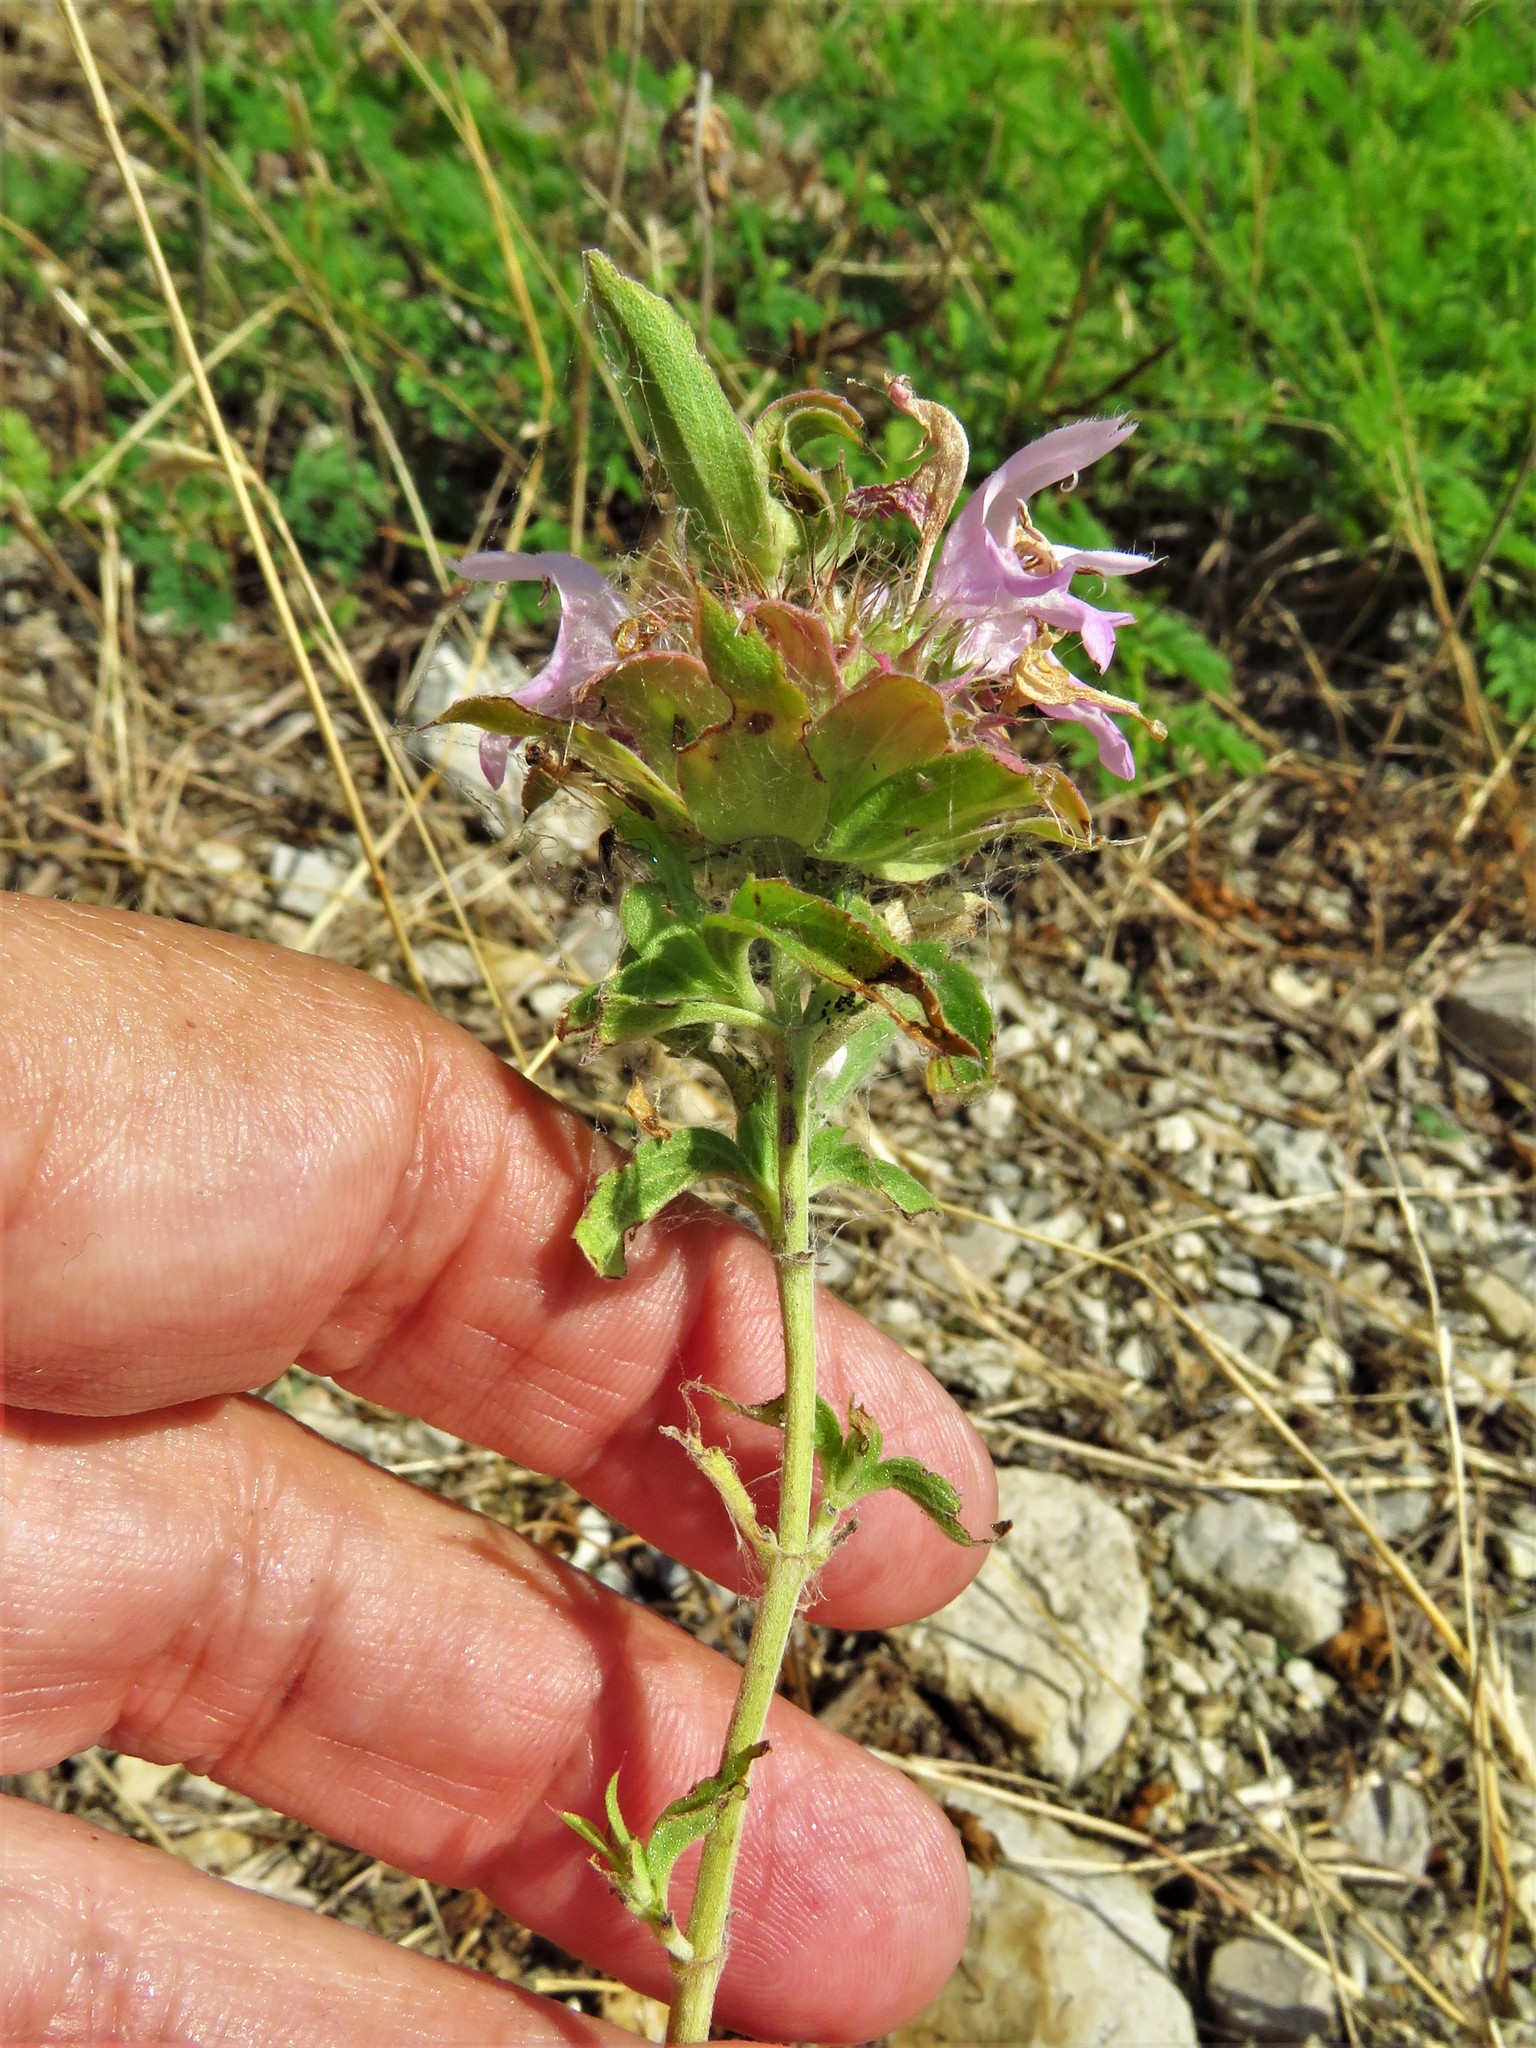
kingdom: Plantae
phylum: Tracheophyta
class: Magnoliopsida
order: Lamiales
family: Lamiaceae
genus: Monarda
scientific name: Monarda citriodora
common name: Lemon beebalm
